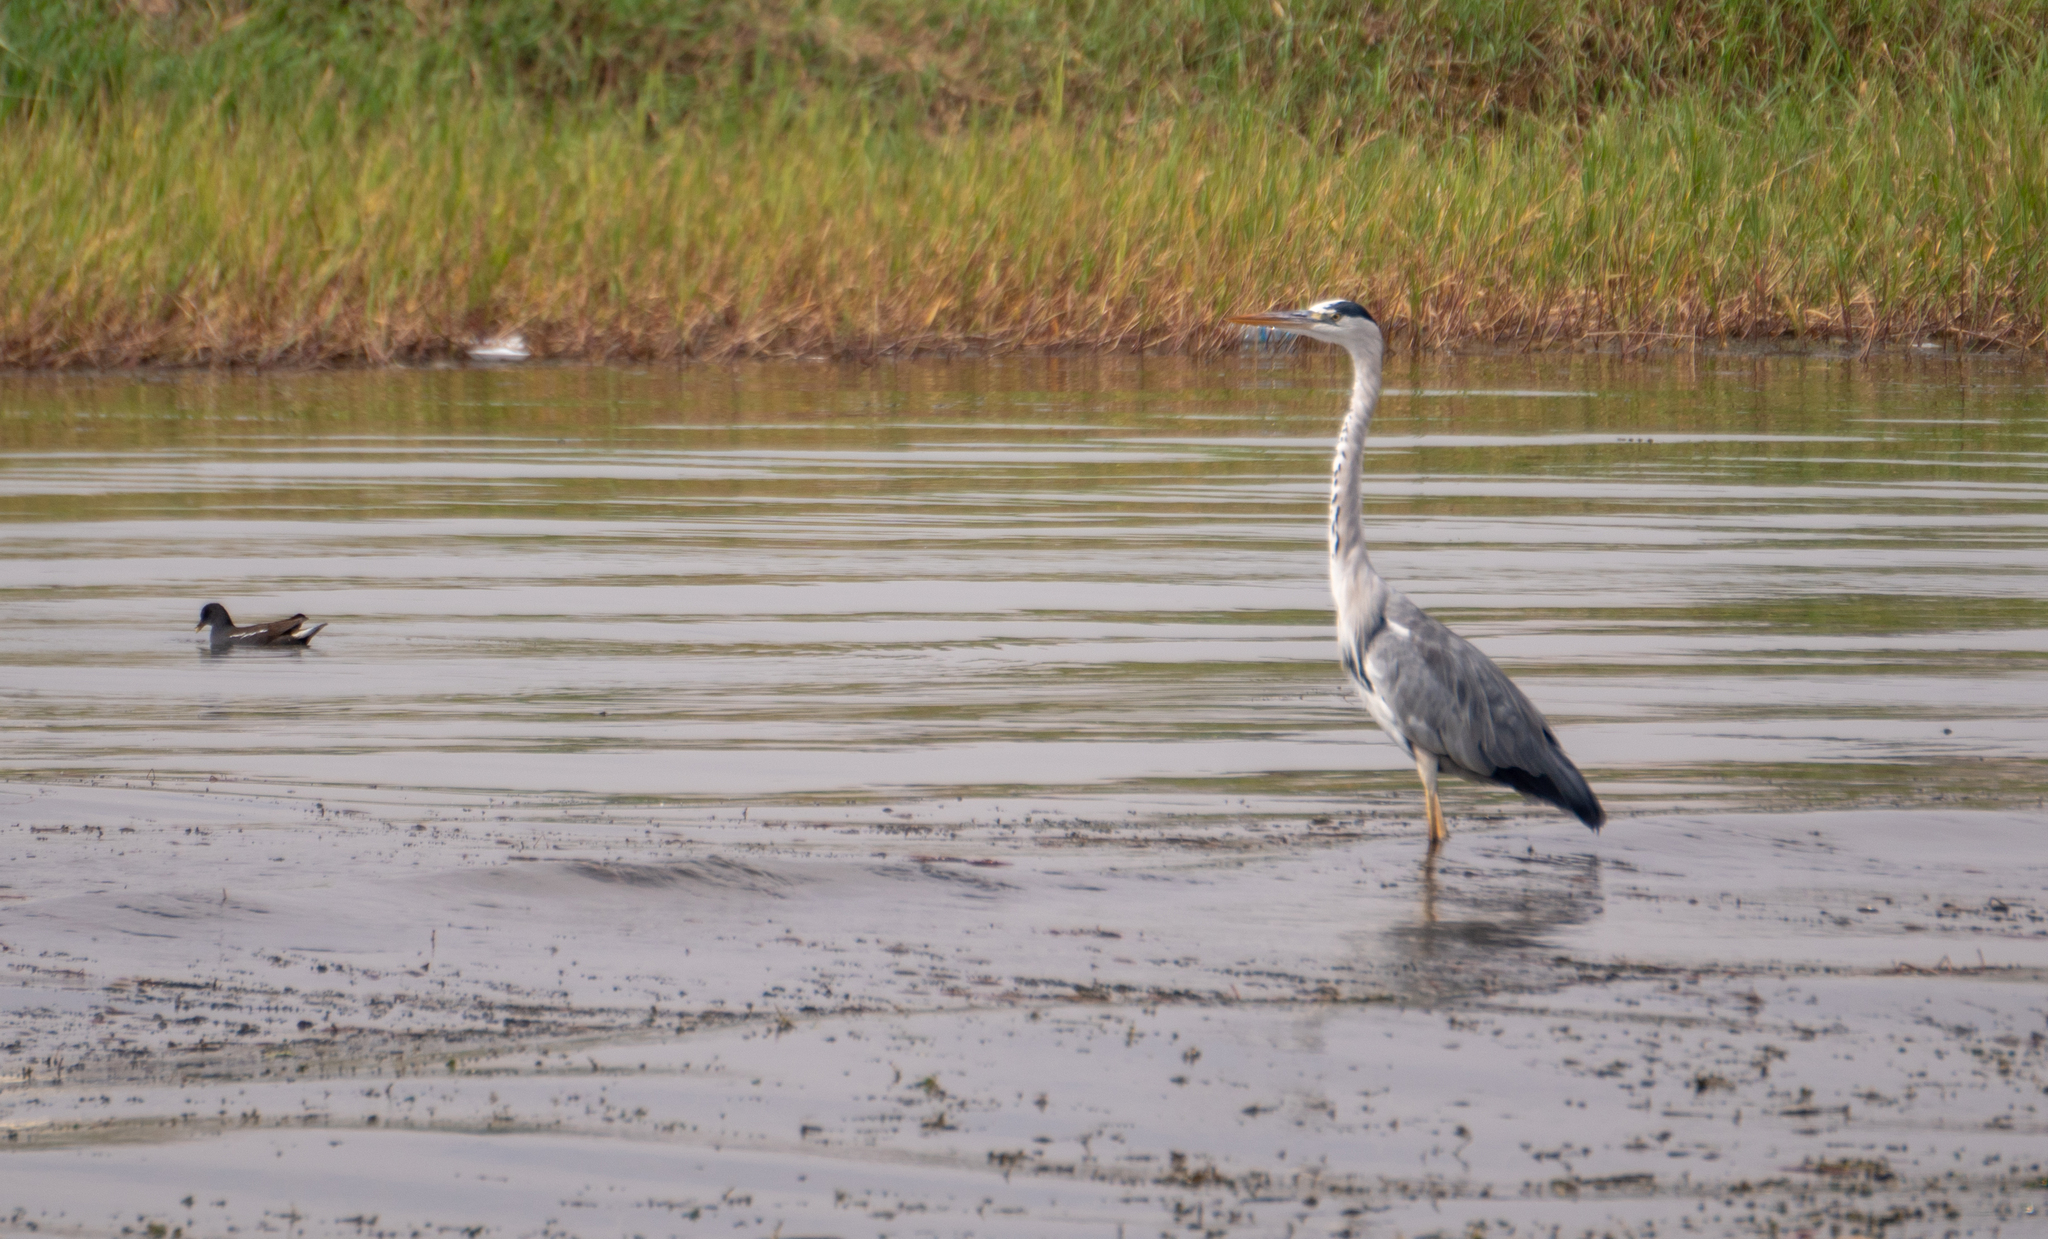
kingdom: Animalia
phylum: Chordata
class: Aves
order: Pelecaniformes
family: Ardeidae
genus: Ardea
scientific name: Ardea cinerea
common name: Grey heron
